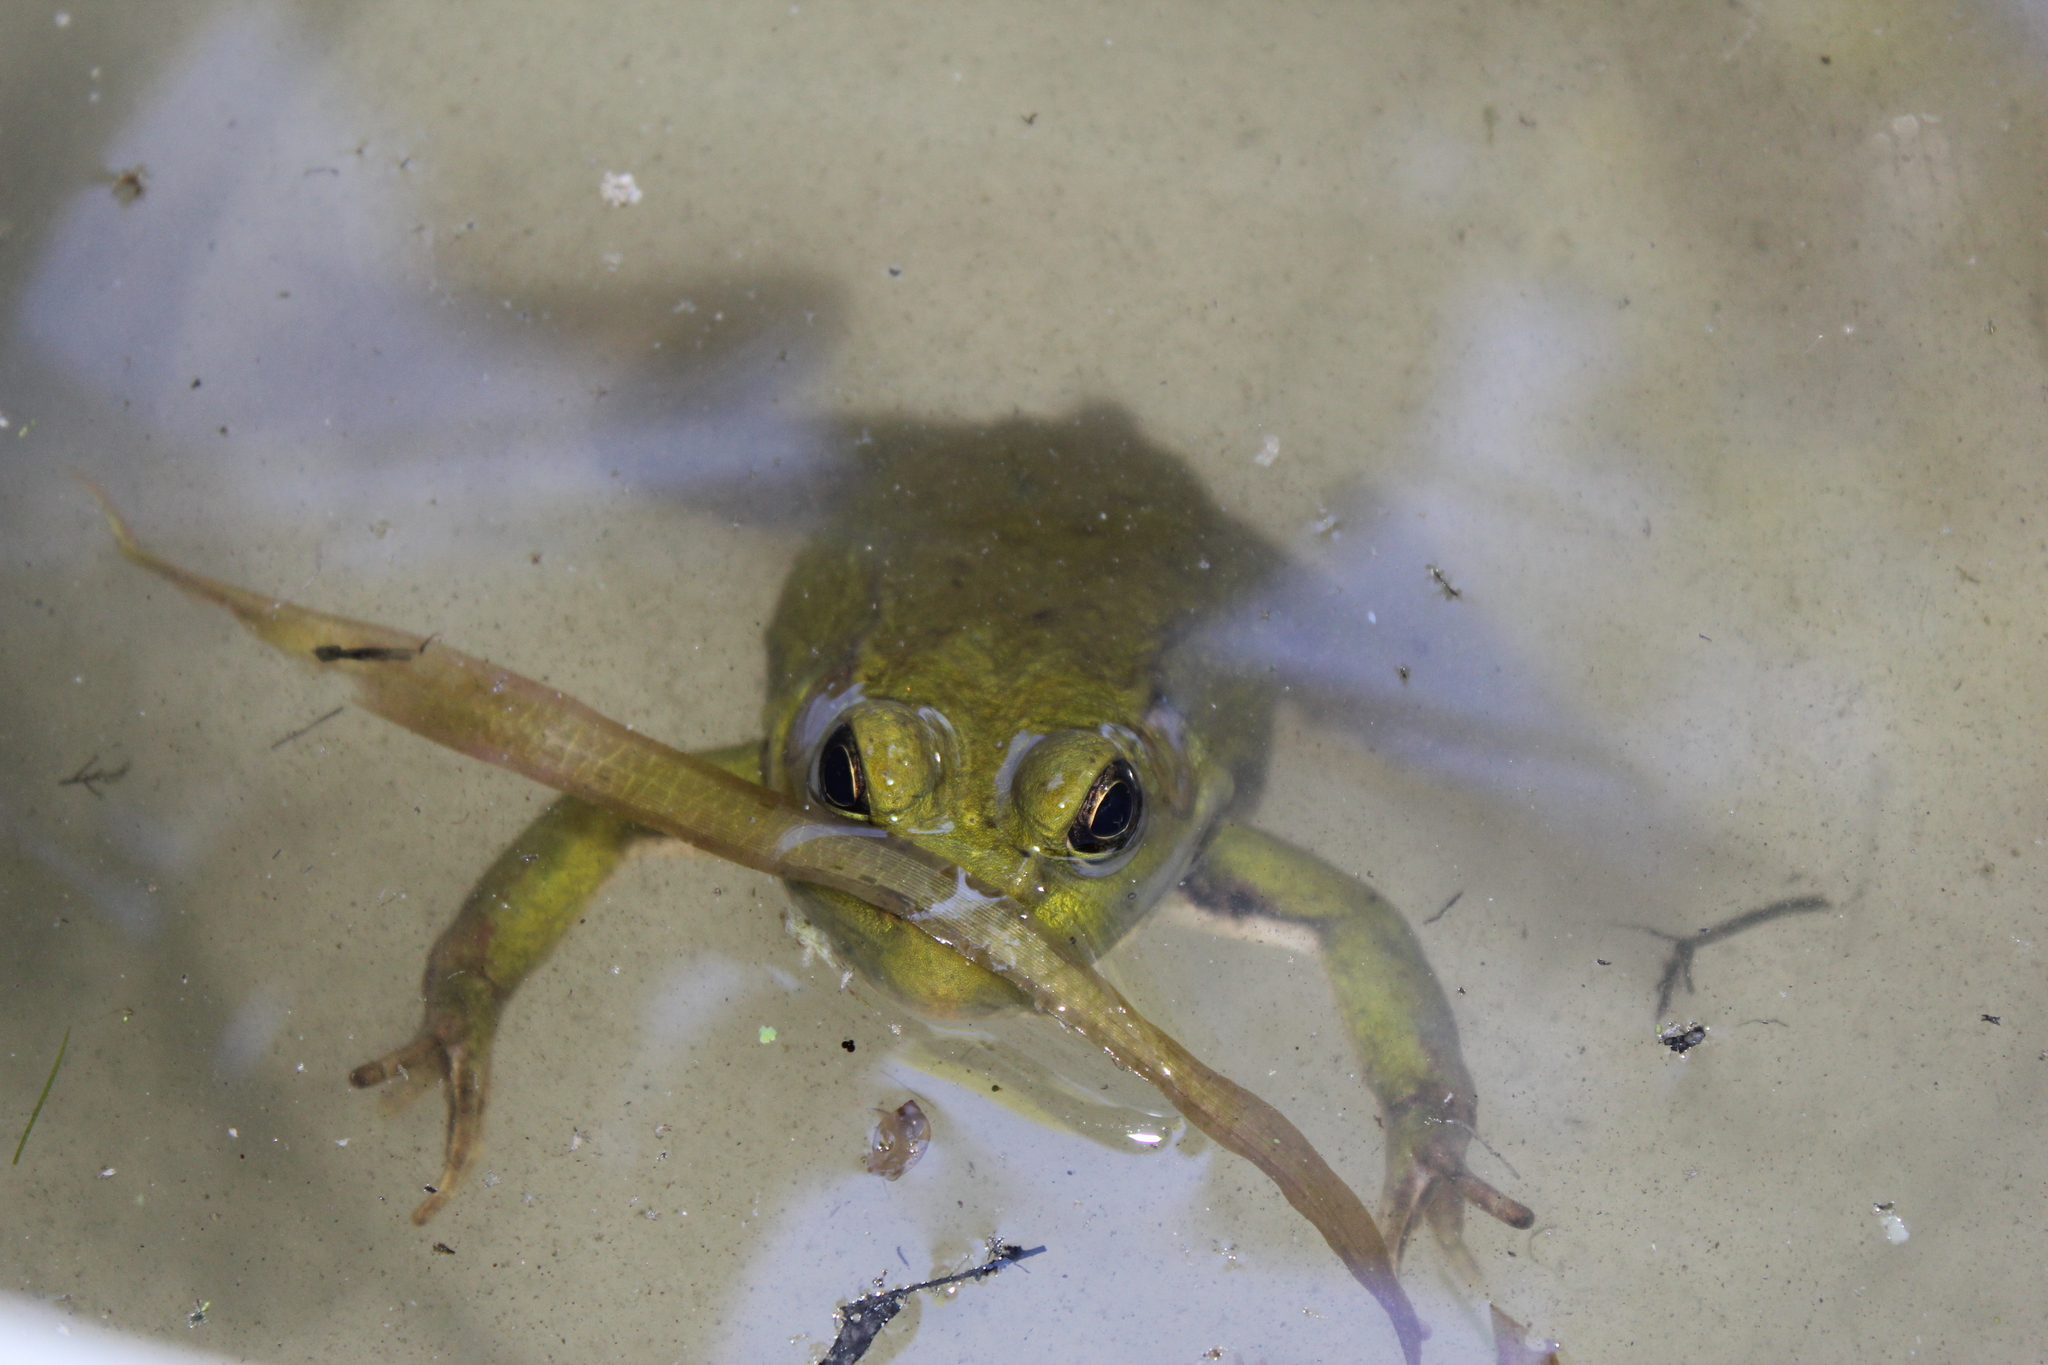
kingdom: Animalia
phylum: Chordata
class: Amphibia
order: Anura
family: Ranidae
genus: Lithobates
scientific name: Lithobates clamitans
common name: Green frog
